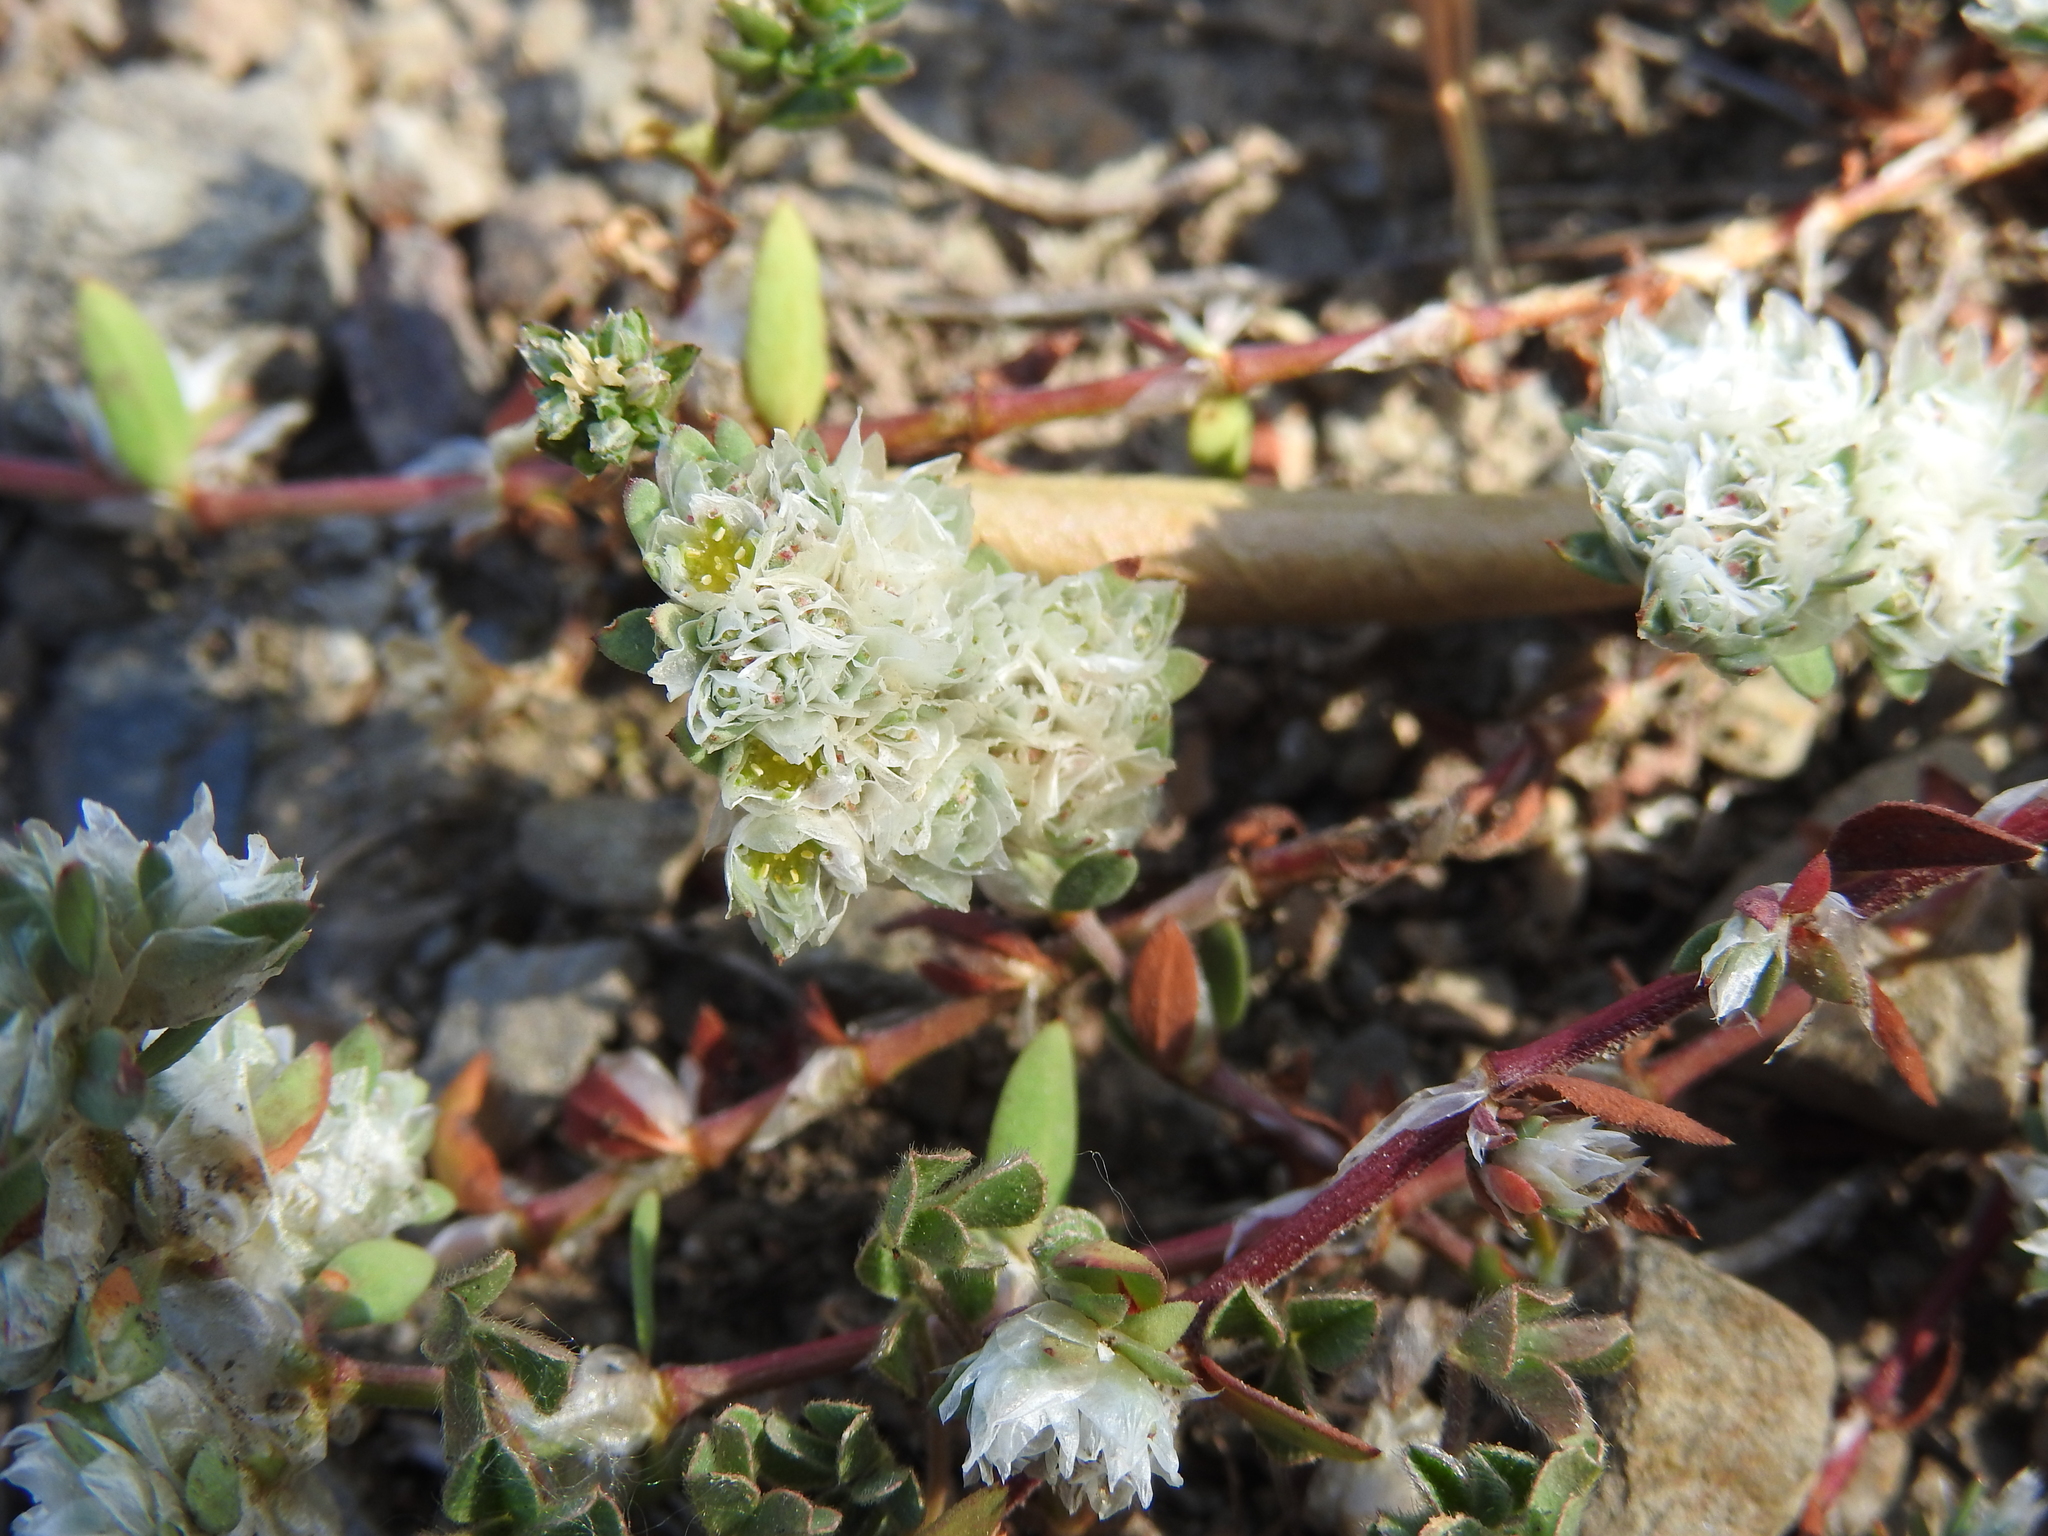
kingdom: Plantae
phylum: Tracheophyta
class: Magnoliopsida
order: Caryophyllales
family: Caryophyllaceae
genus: Paronychia
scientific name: Paronychia argentea
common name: Silver nailroot
